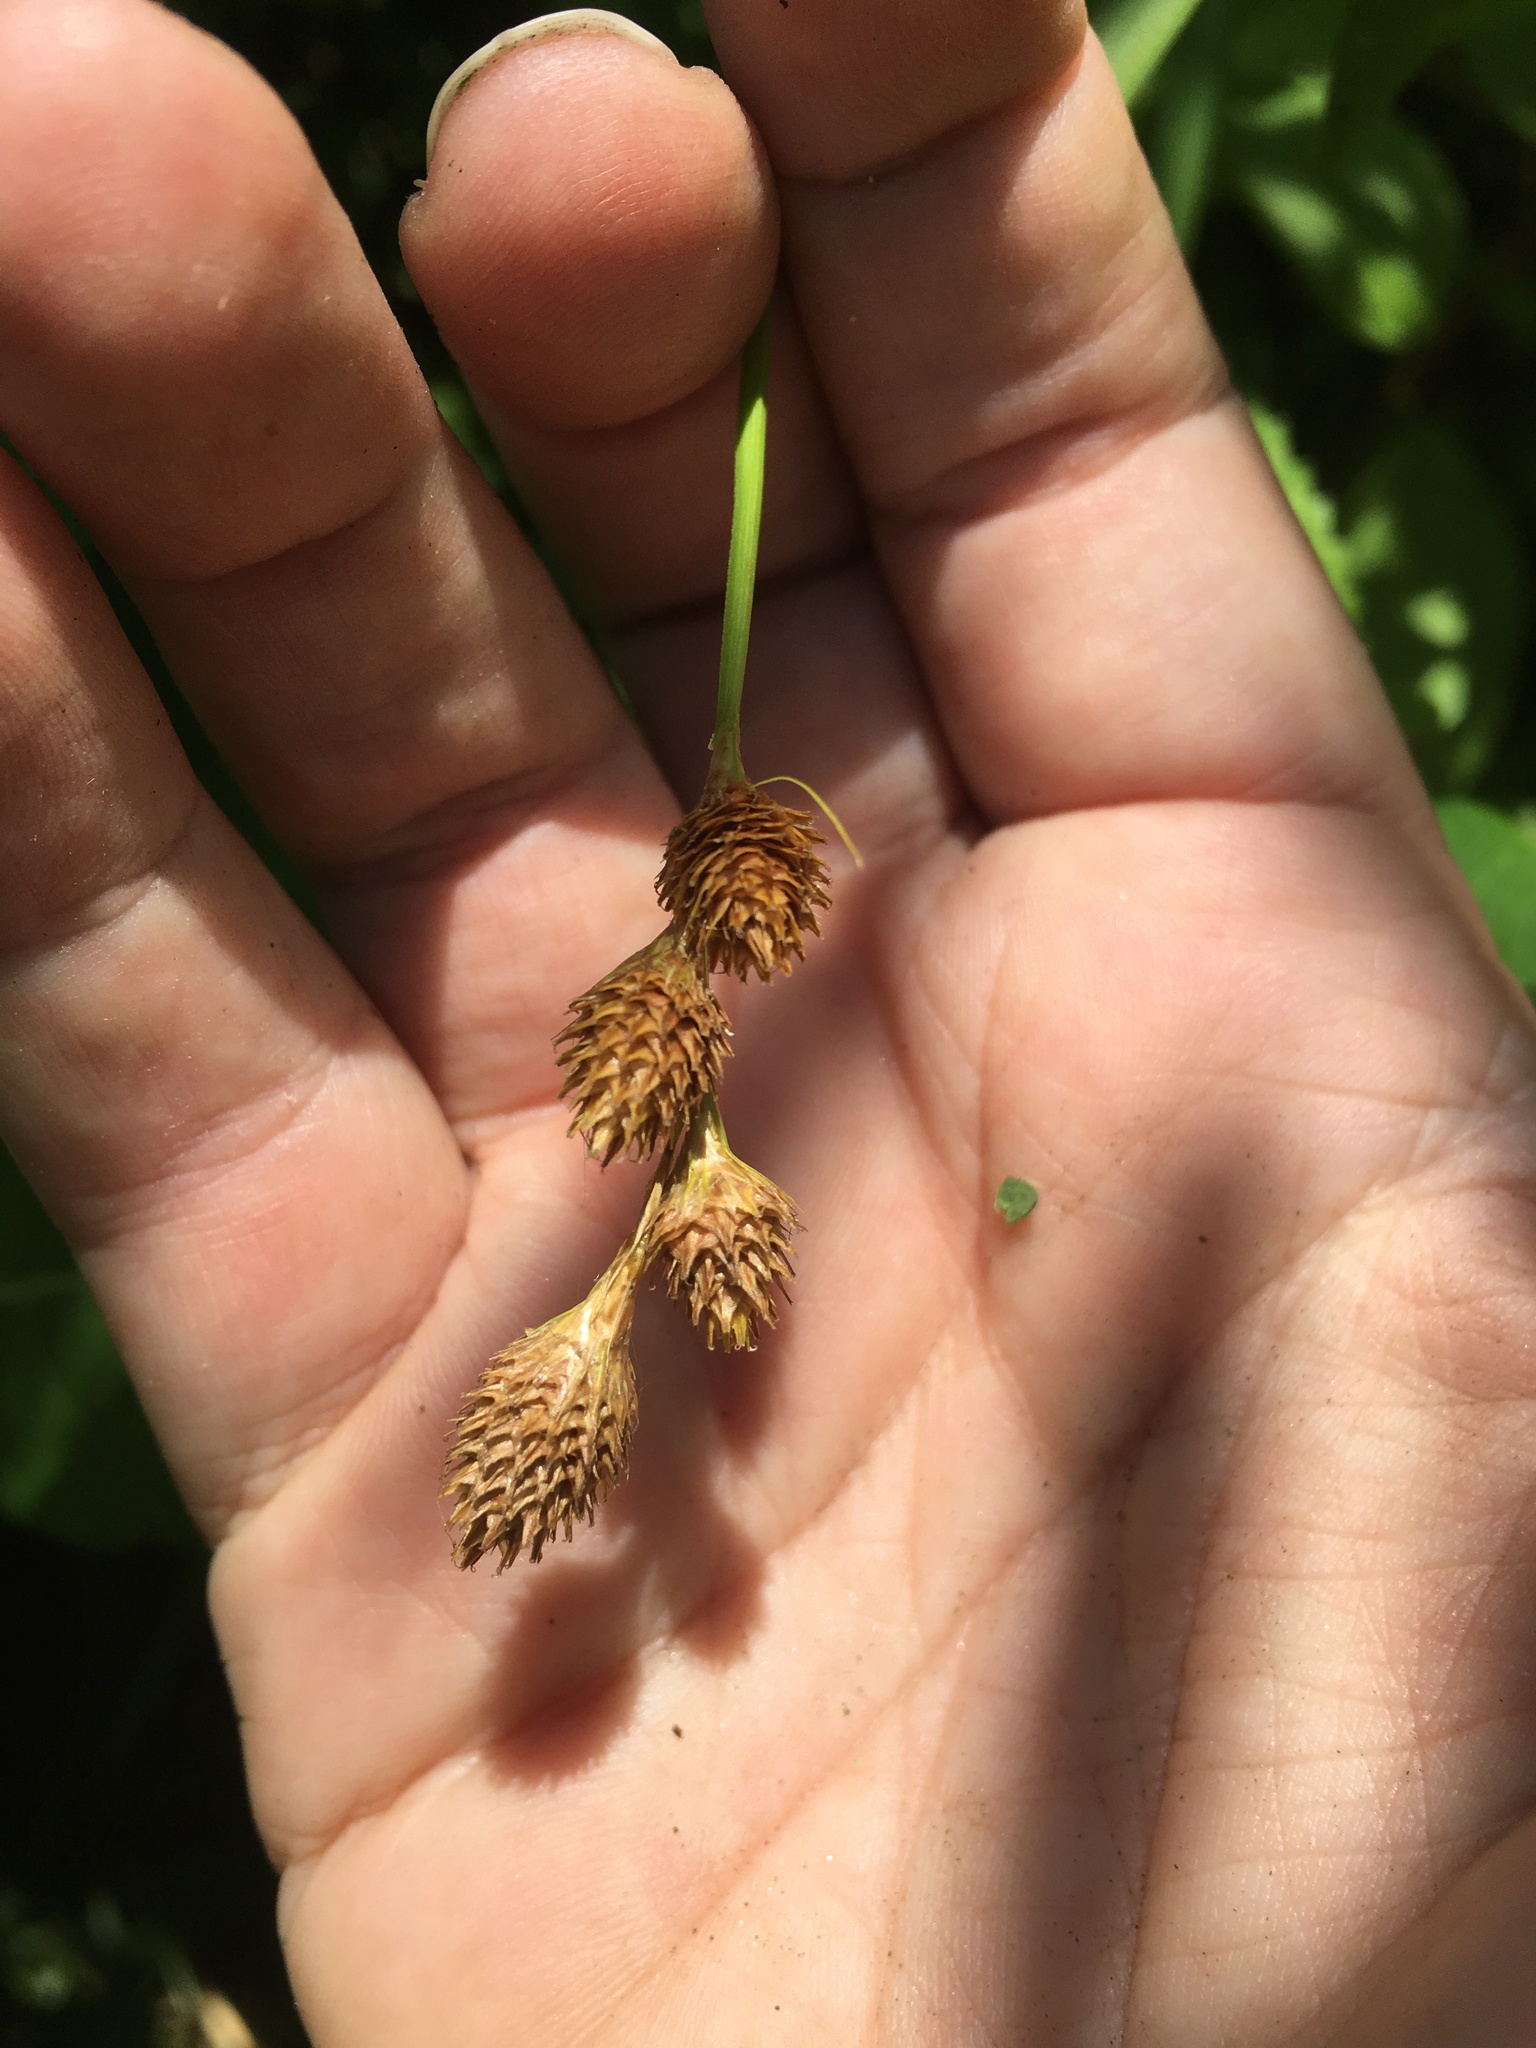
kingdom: Plantae
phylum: Tracheophyta
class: Liliopsida
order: Poales
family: Cyperaceae
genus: Carex
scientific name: Carex alata
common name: Broad-winged sedge
